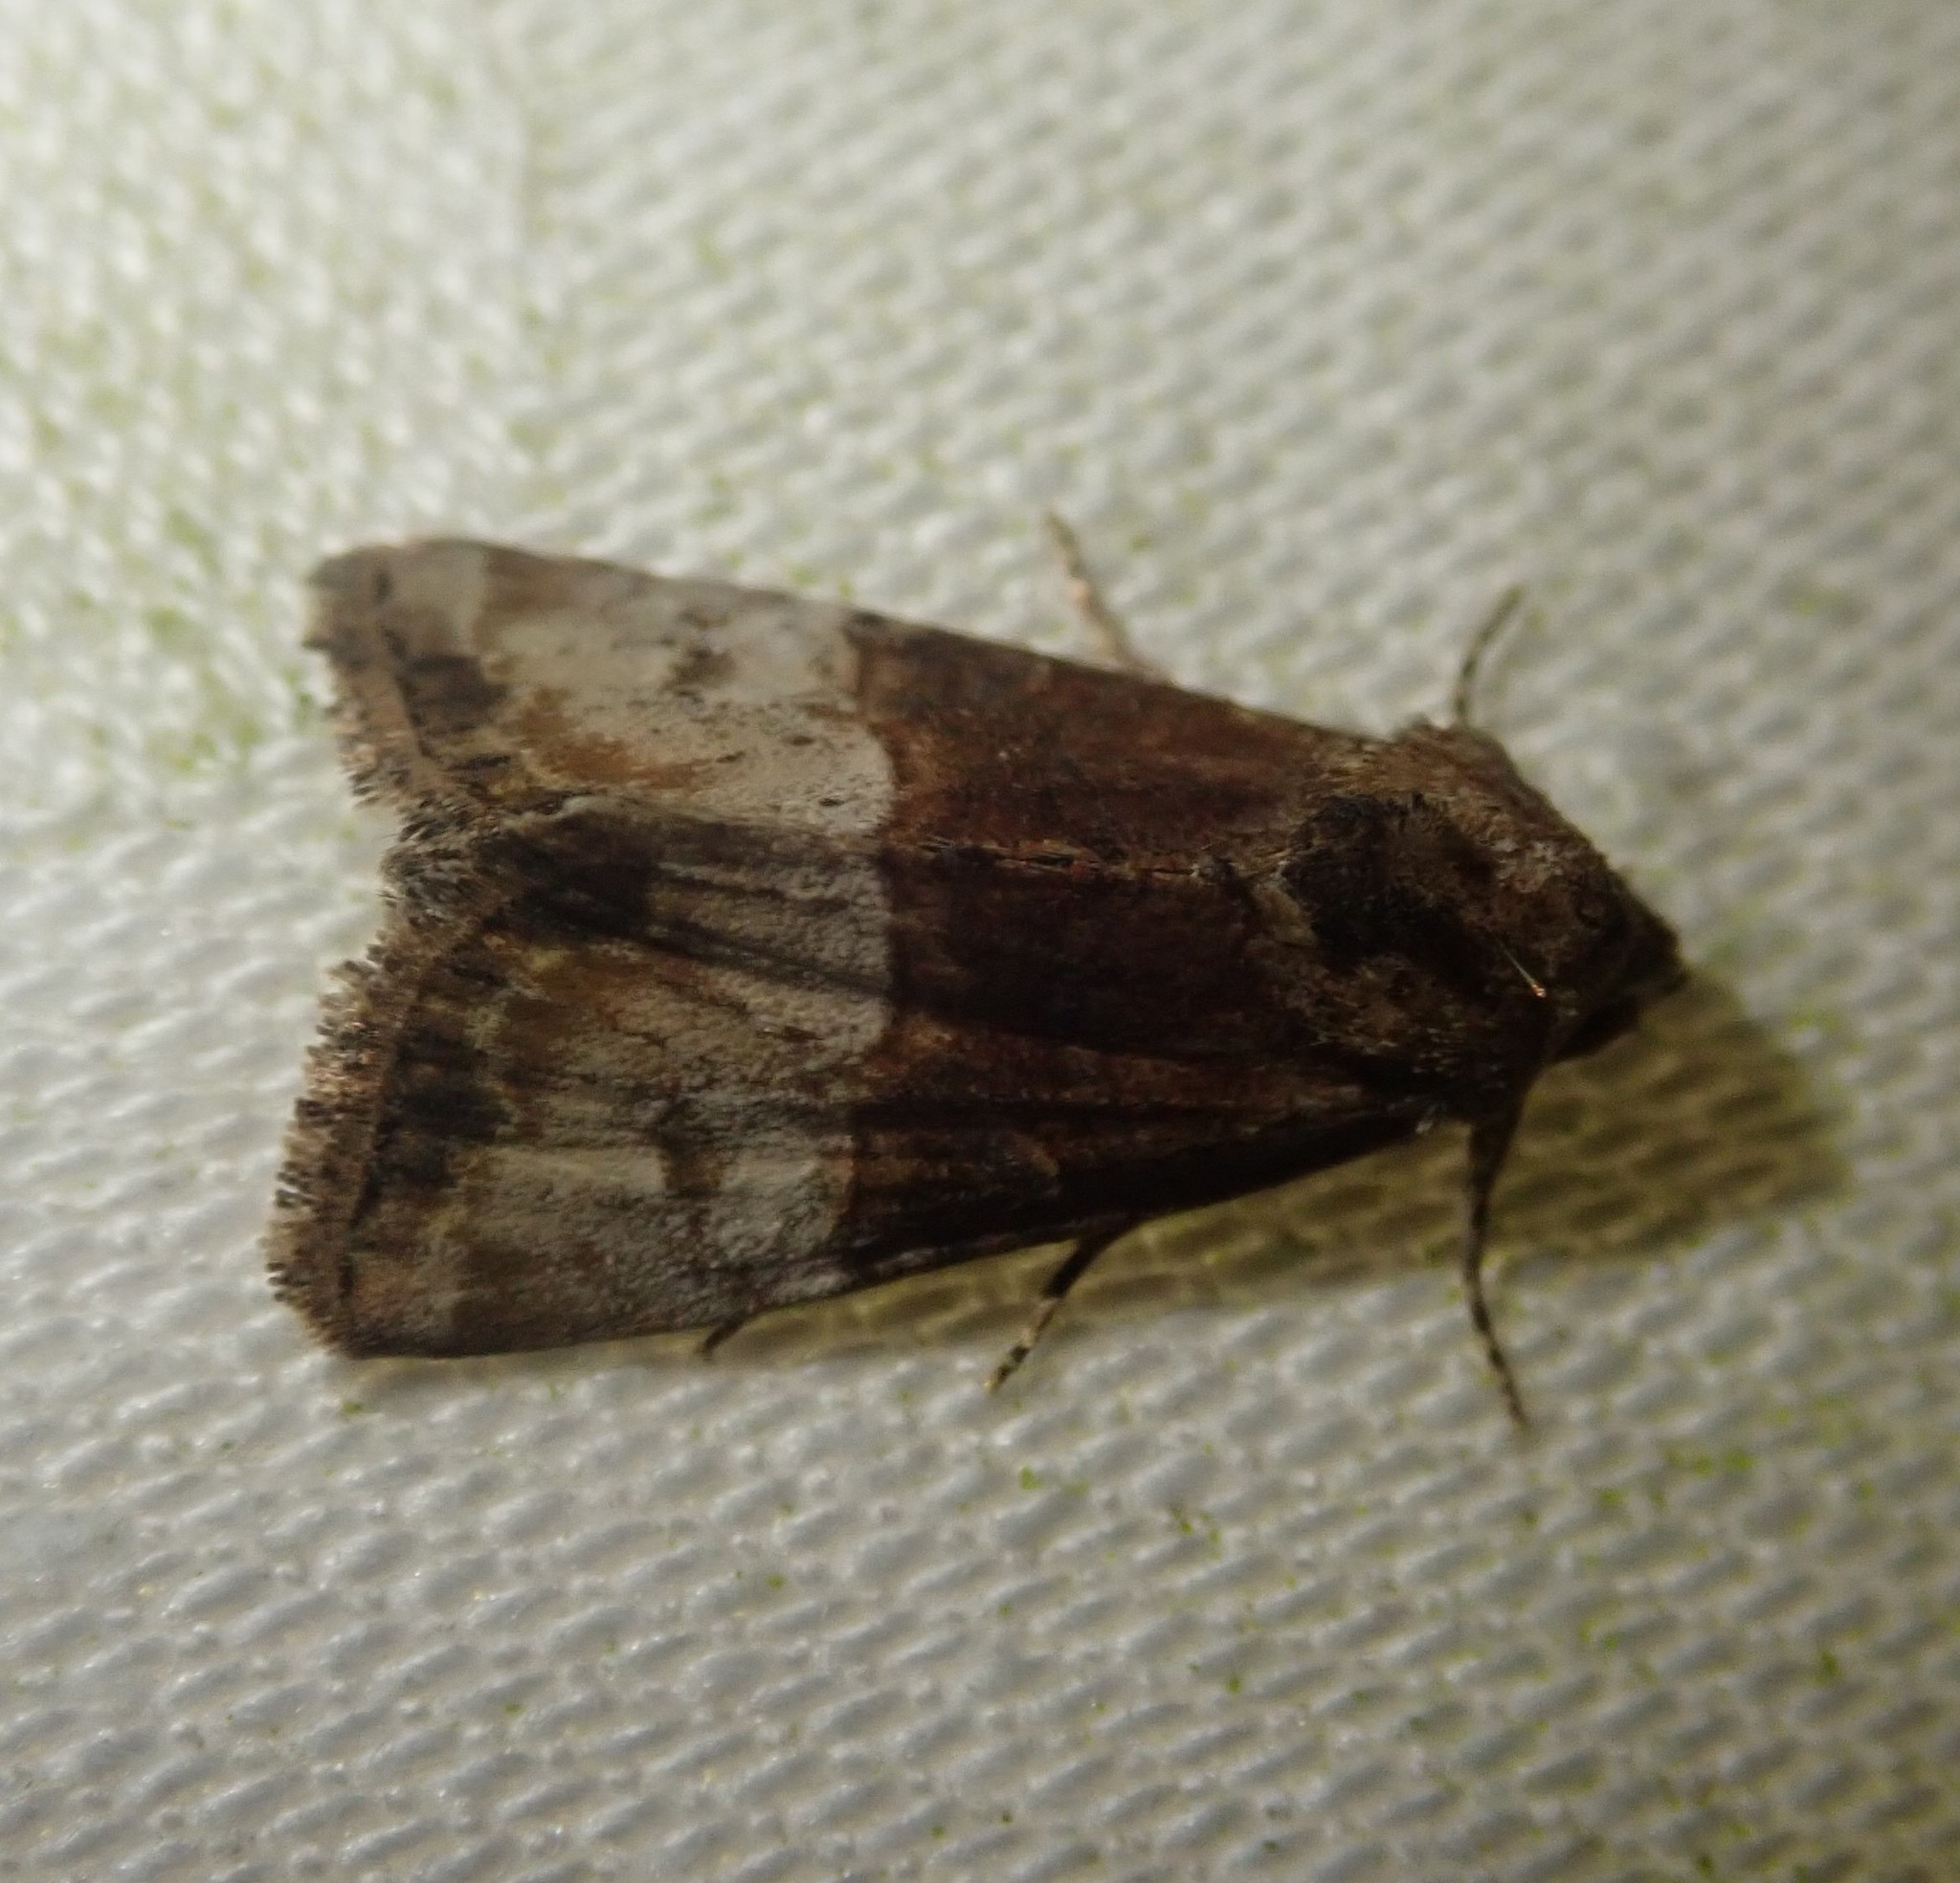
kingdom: Animalia
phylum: Arthropoda
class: Insecta
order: Lepidoptera
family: Noctuidae
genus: Mesoligia
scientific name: Mesoligia furuncula
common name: Cloaked minor
